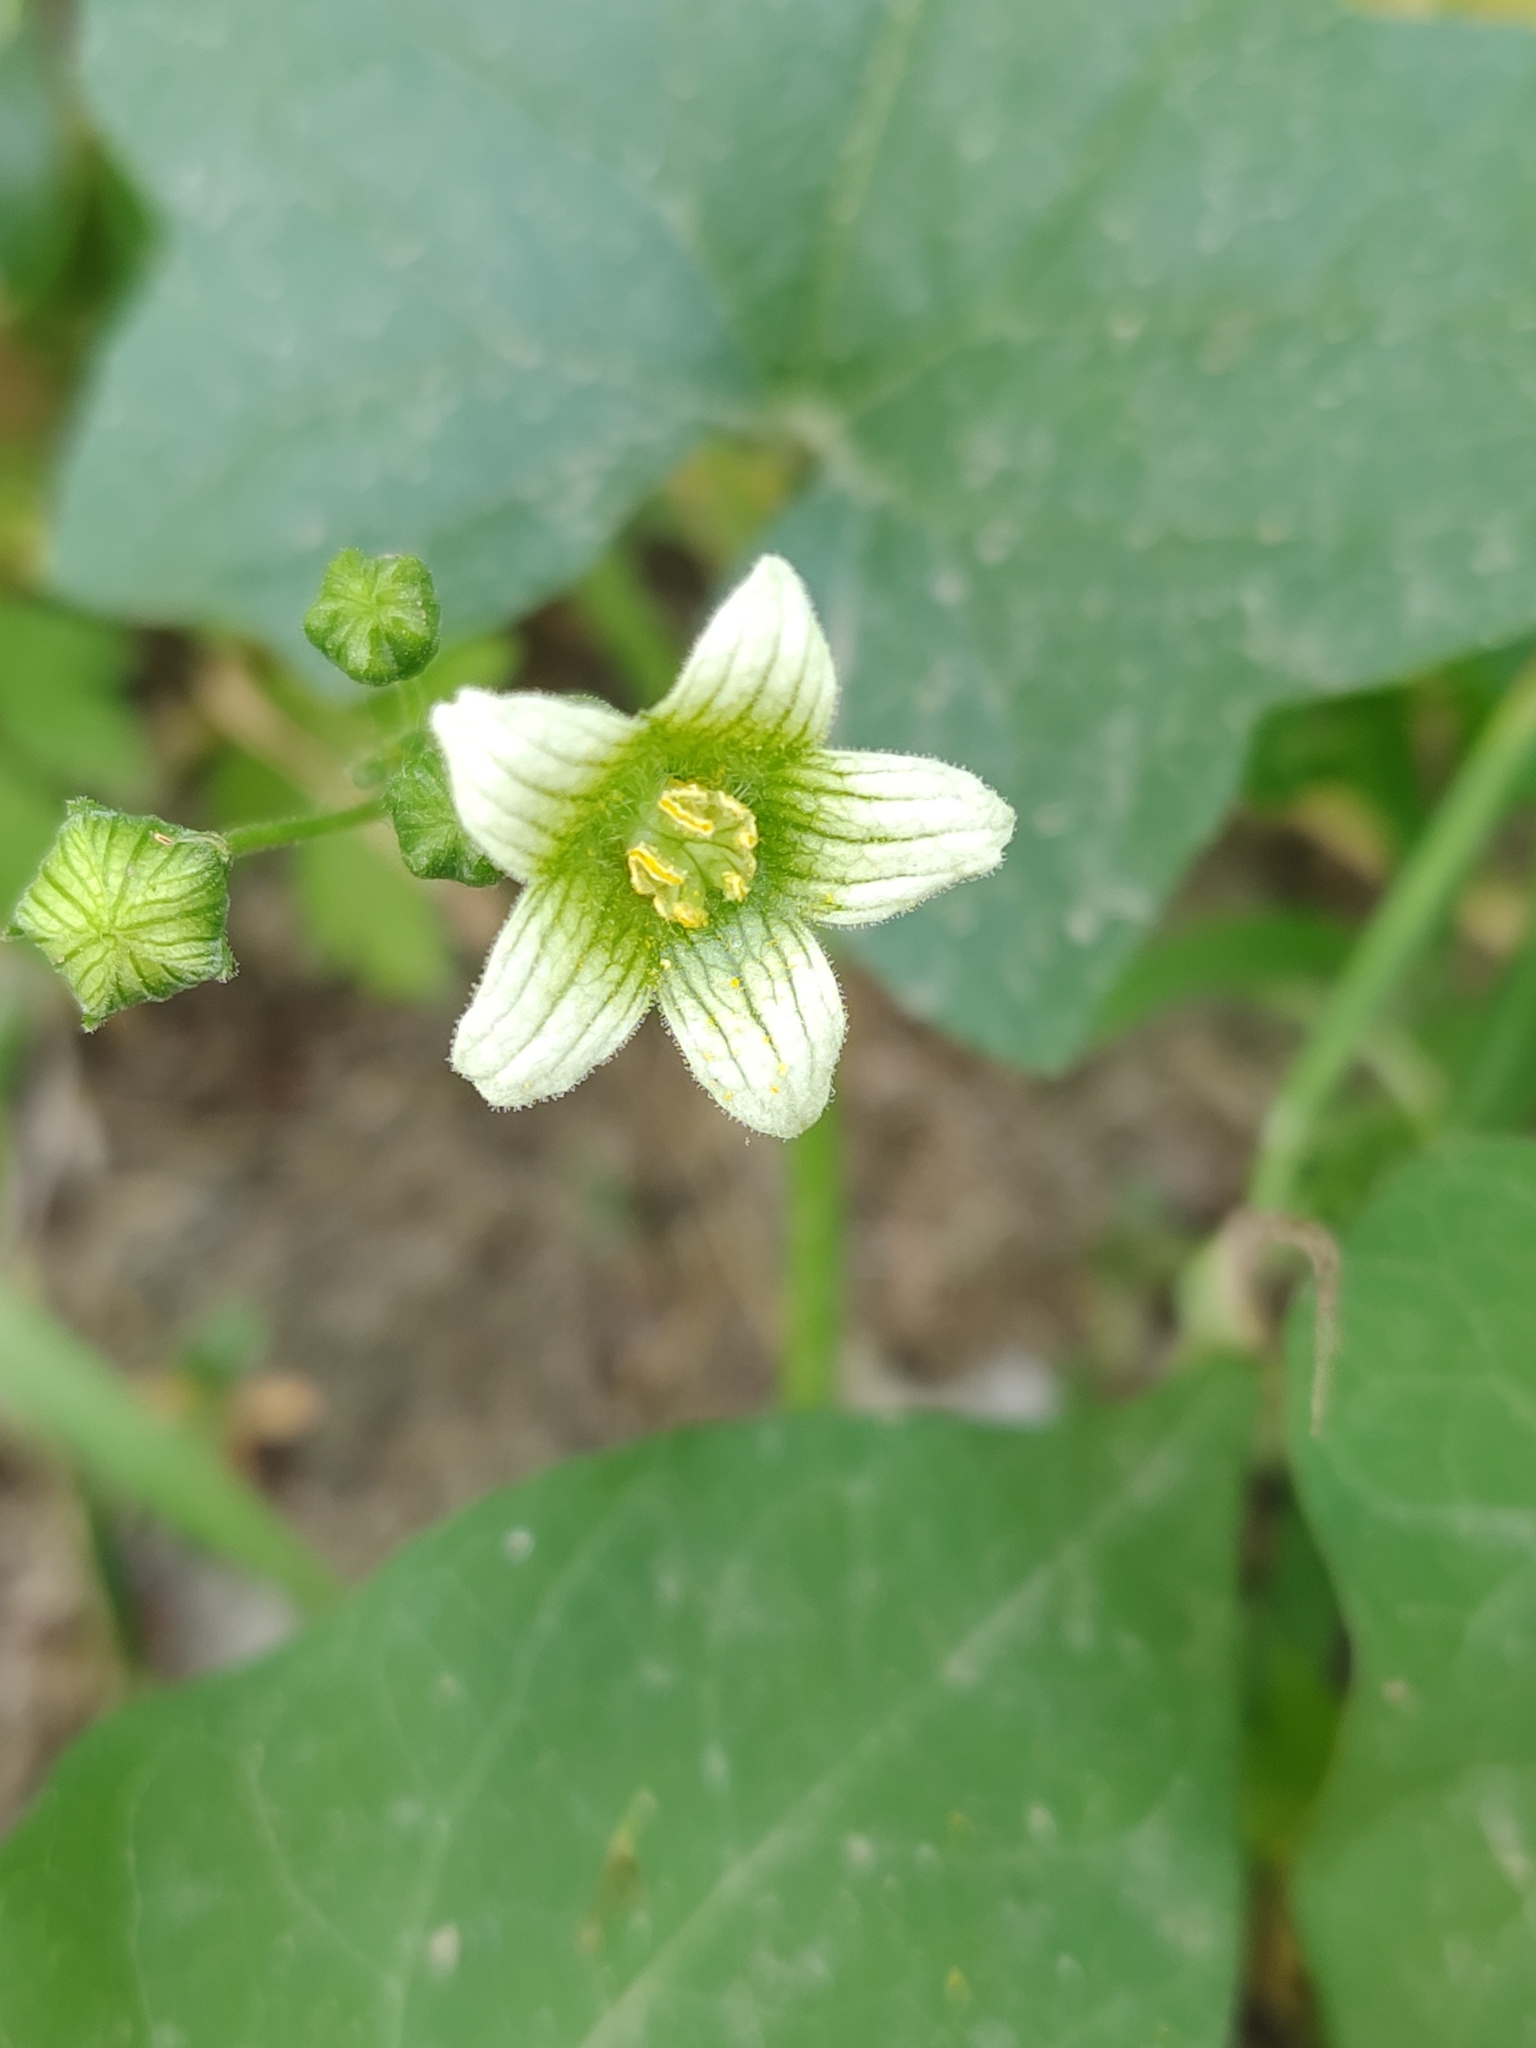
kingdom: Plantae
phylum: Tracheophyta
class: Magnoliopsida
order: Cucurbitales
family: Cucurbitaceae
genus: Bryonia
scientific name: Bryonia cretica
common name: Cretan bryony
